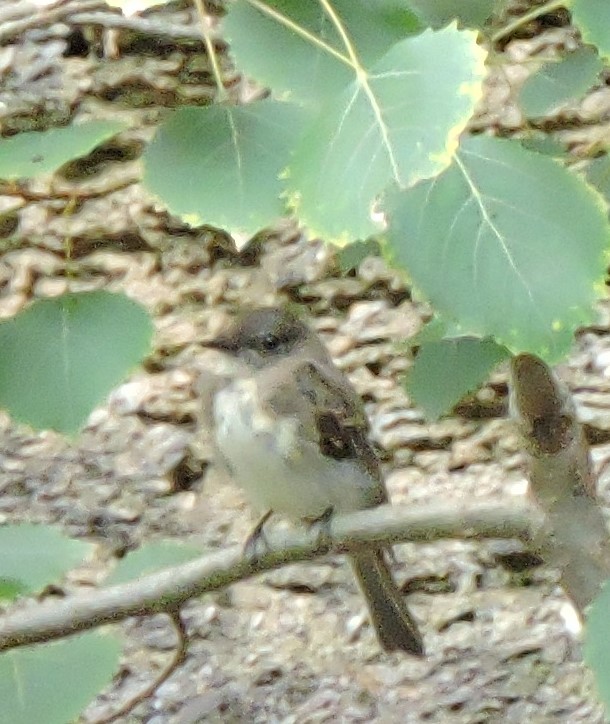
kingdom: Animalia
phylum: Chordata
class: Aves
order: Passeriformes
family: Tyrannidae
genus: Sayornis
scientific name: Sayornis phoebe
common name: Eastern phoebe
